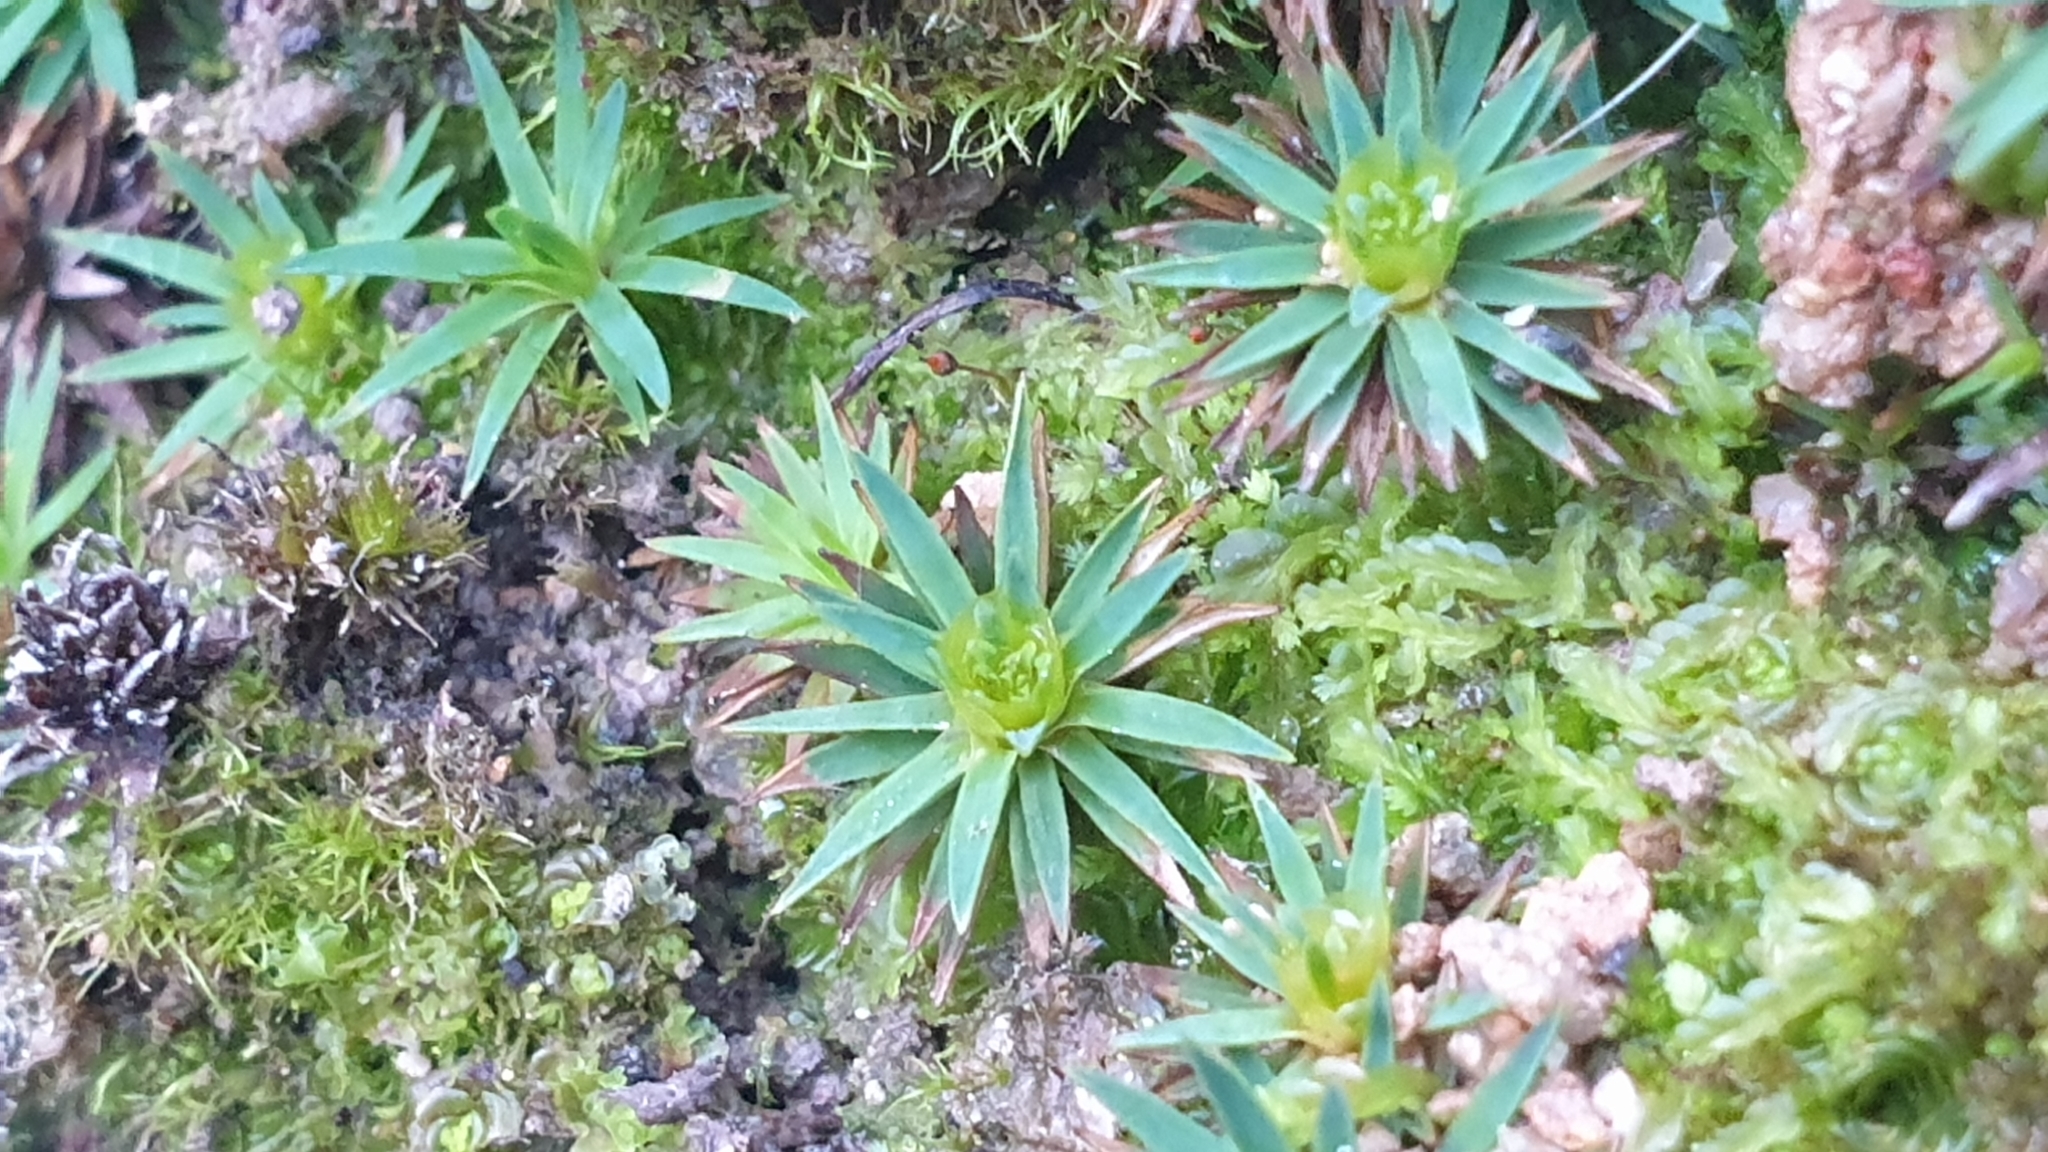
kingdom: Plantae
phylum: Bryophyta
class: Polytrichopsida
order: Polytrichales
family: Polytrichaceae
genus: Dawsonia
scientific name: Dawsonia longiseta
